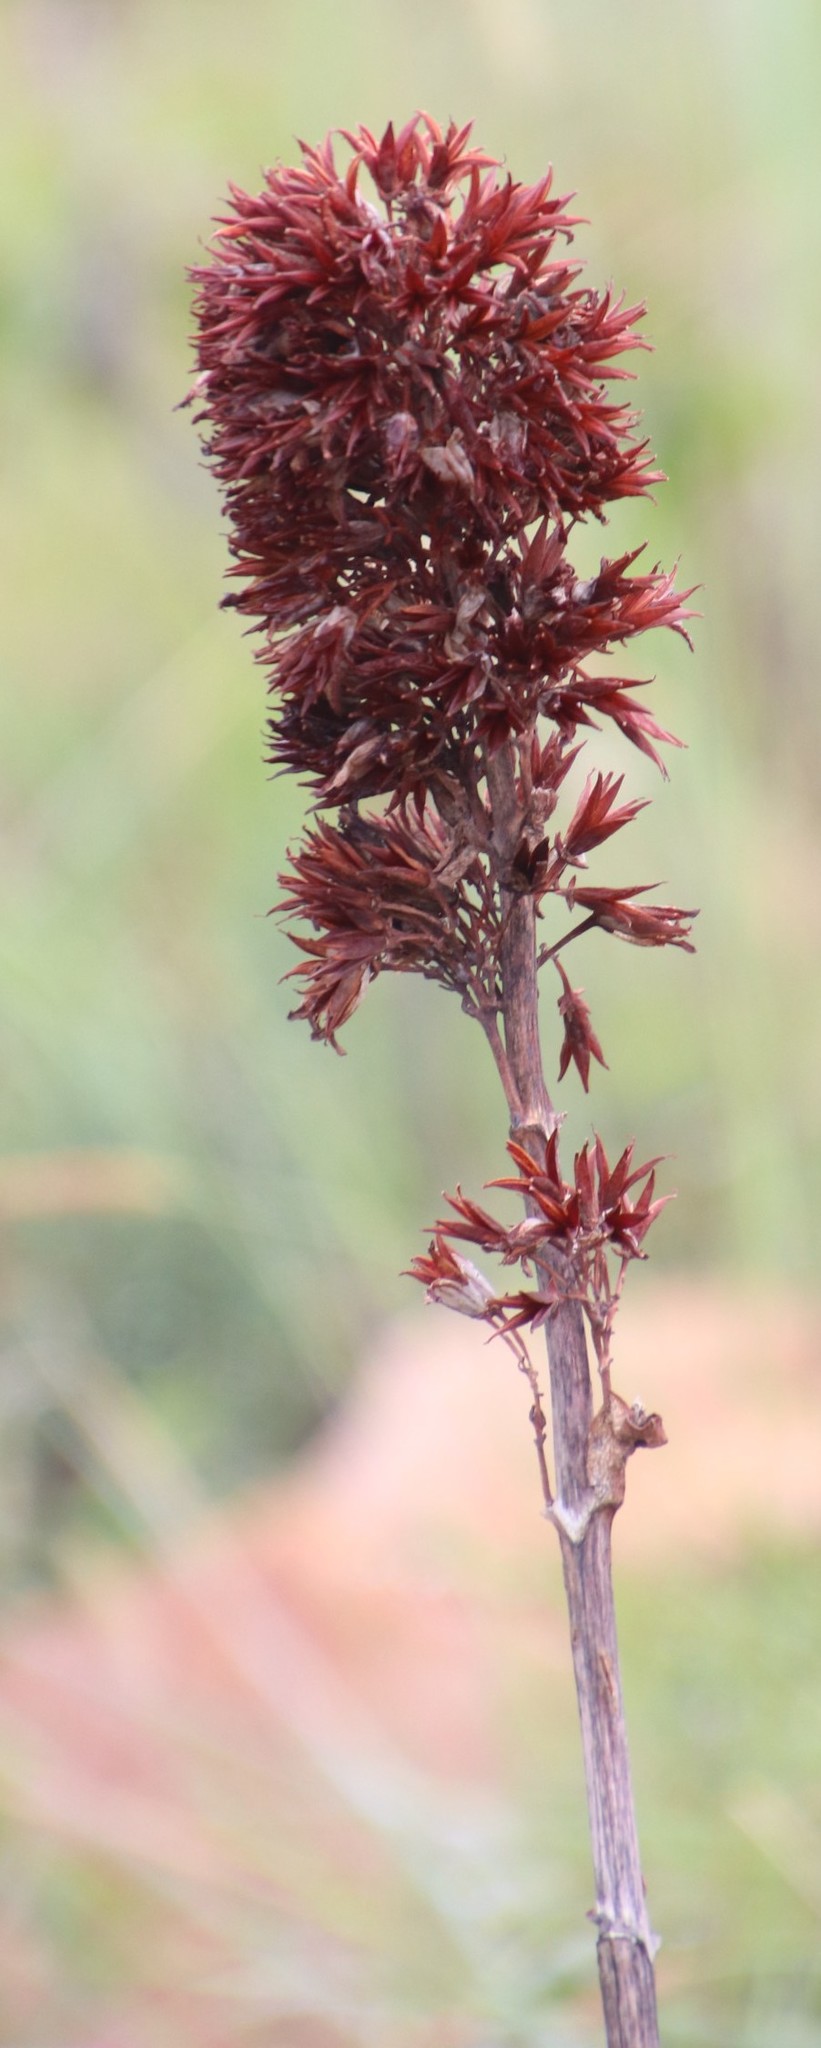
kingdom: Plantae
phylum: Tracheophyta
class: Magnoliopsida
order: Saxifragales
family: Crassulaceae
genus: Kalanchoe
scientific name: Kalanchoe thyrsiflora
